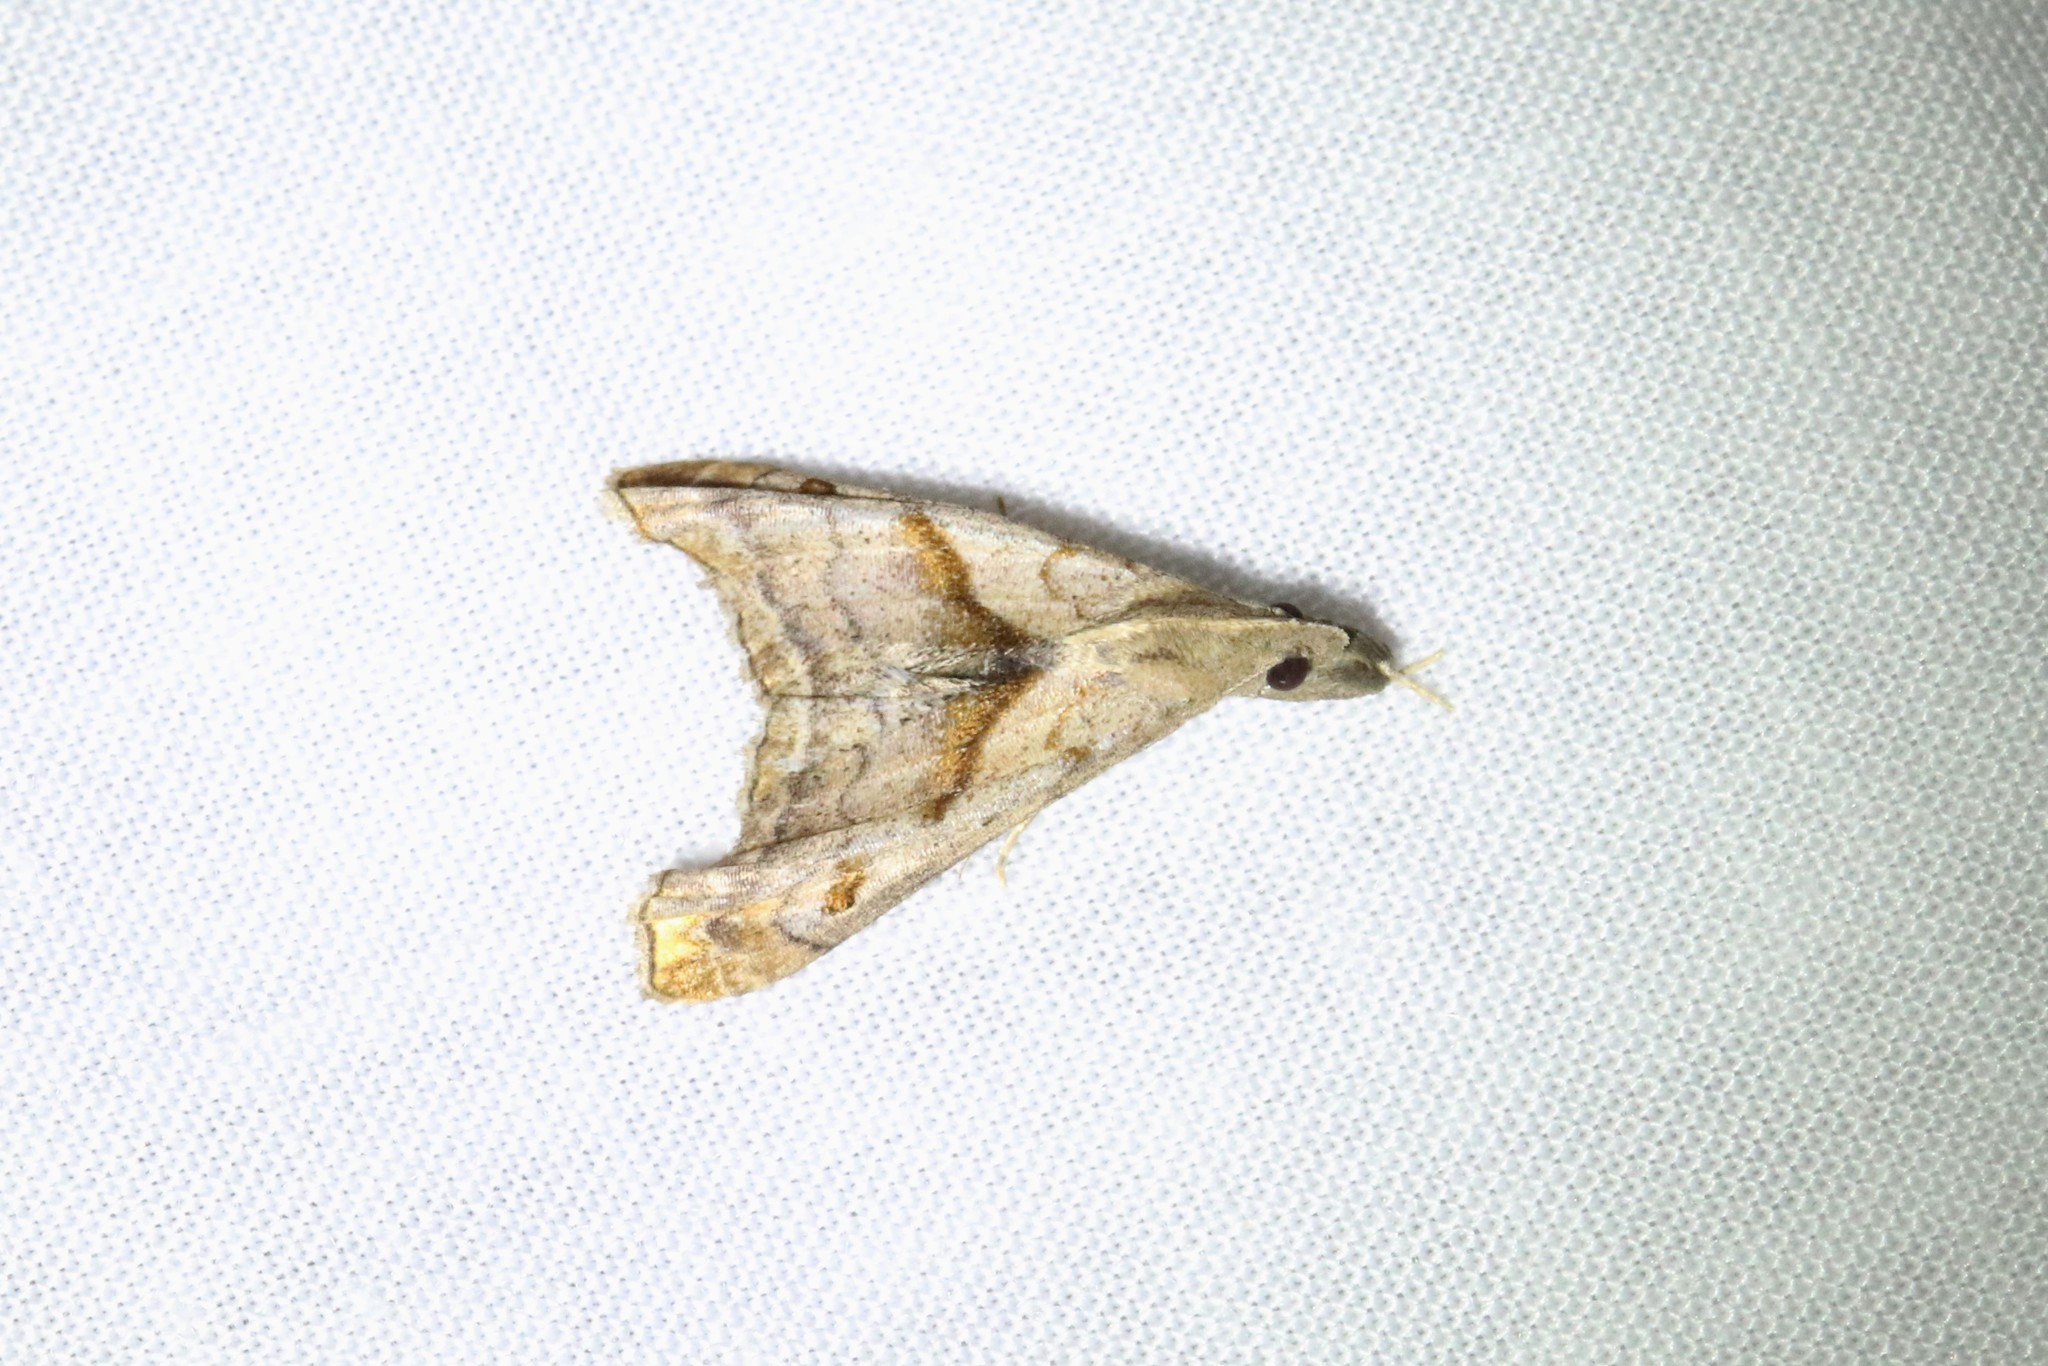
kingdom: Animalia
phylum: Arthropoda
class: Insecta
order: Lepidoptera
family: Erebidae
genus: Palthis
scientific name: Palthis angulalis
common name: Dark-spotted palthis moth
